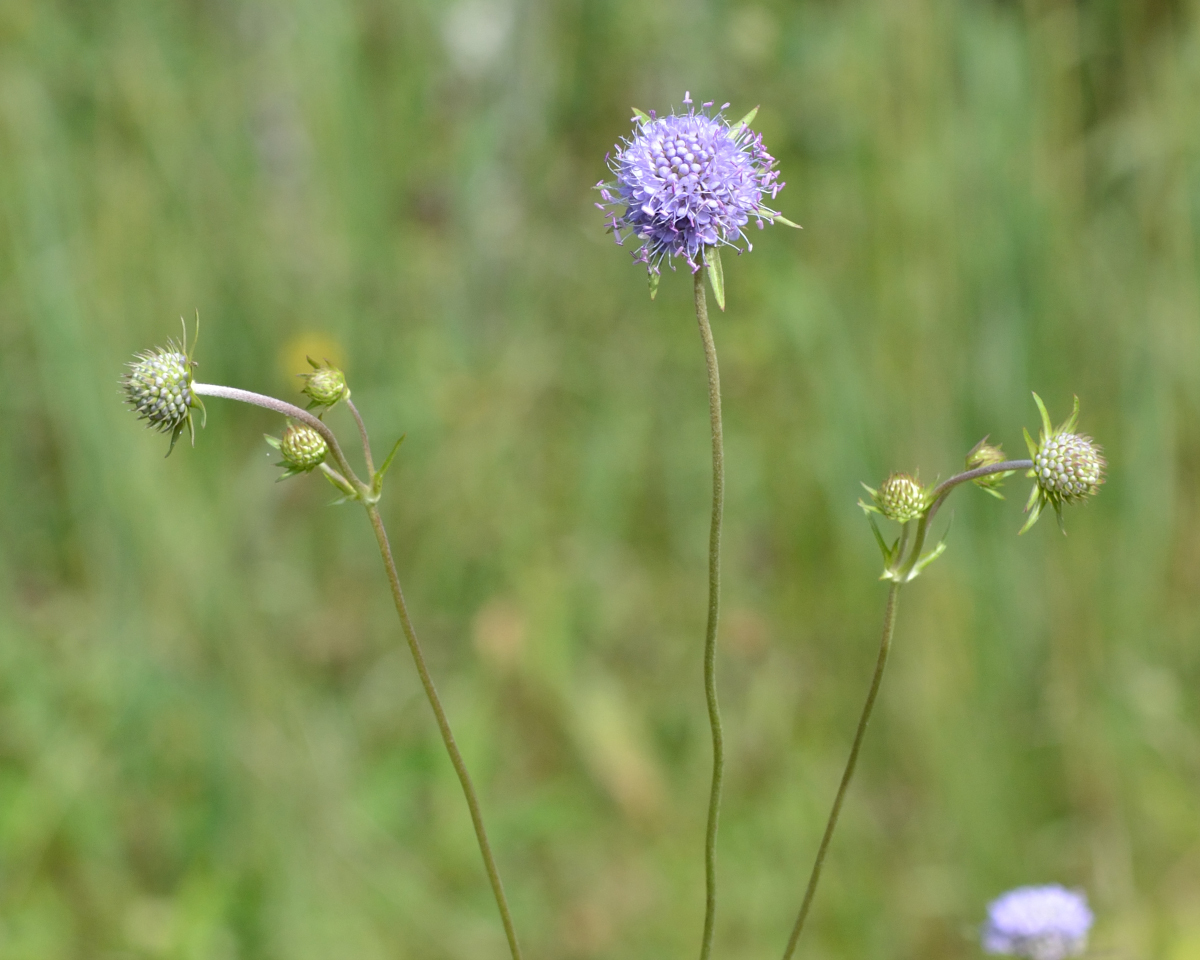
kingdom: Plantae
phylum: Tracheophyta
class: Magnoliopsida
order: Dipsacales
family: Caprifoliaceae
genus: Succisa
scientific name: Succisa pratensis
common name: Devil's-bit
